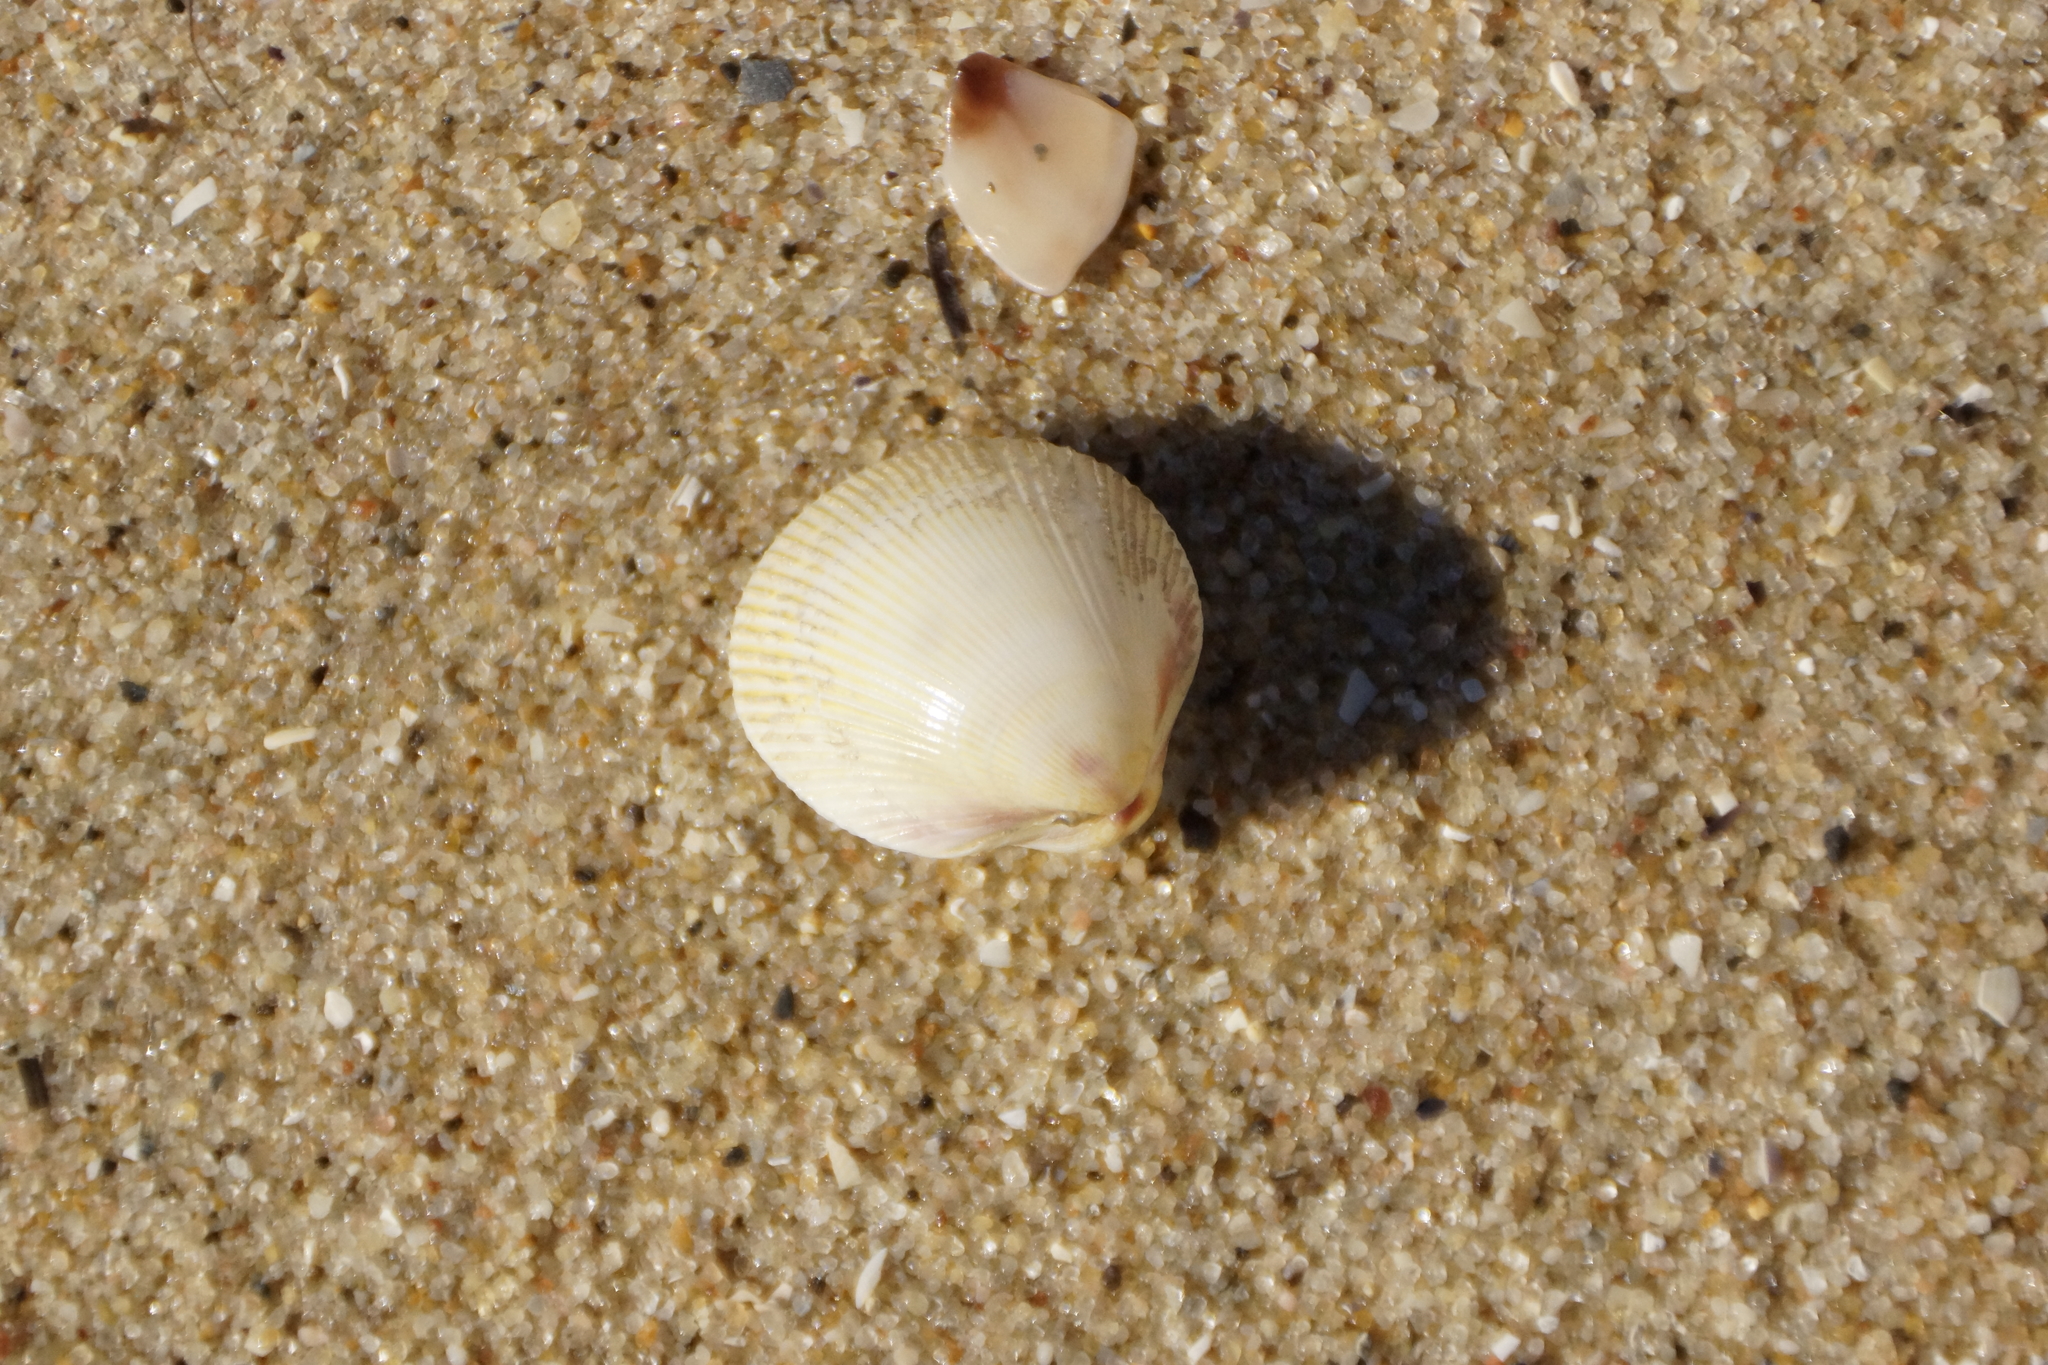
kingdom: Animalia
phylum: Mollusca
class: Bivalvia
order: Cardiida
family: Cardiidae
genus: Fulvia
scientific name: Fulvia tenuicostata
